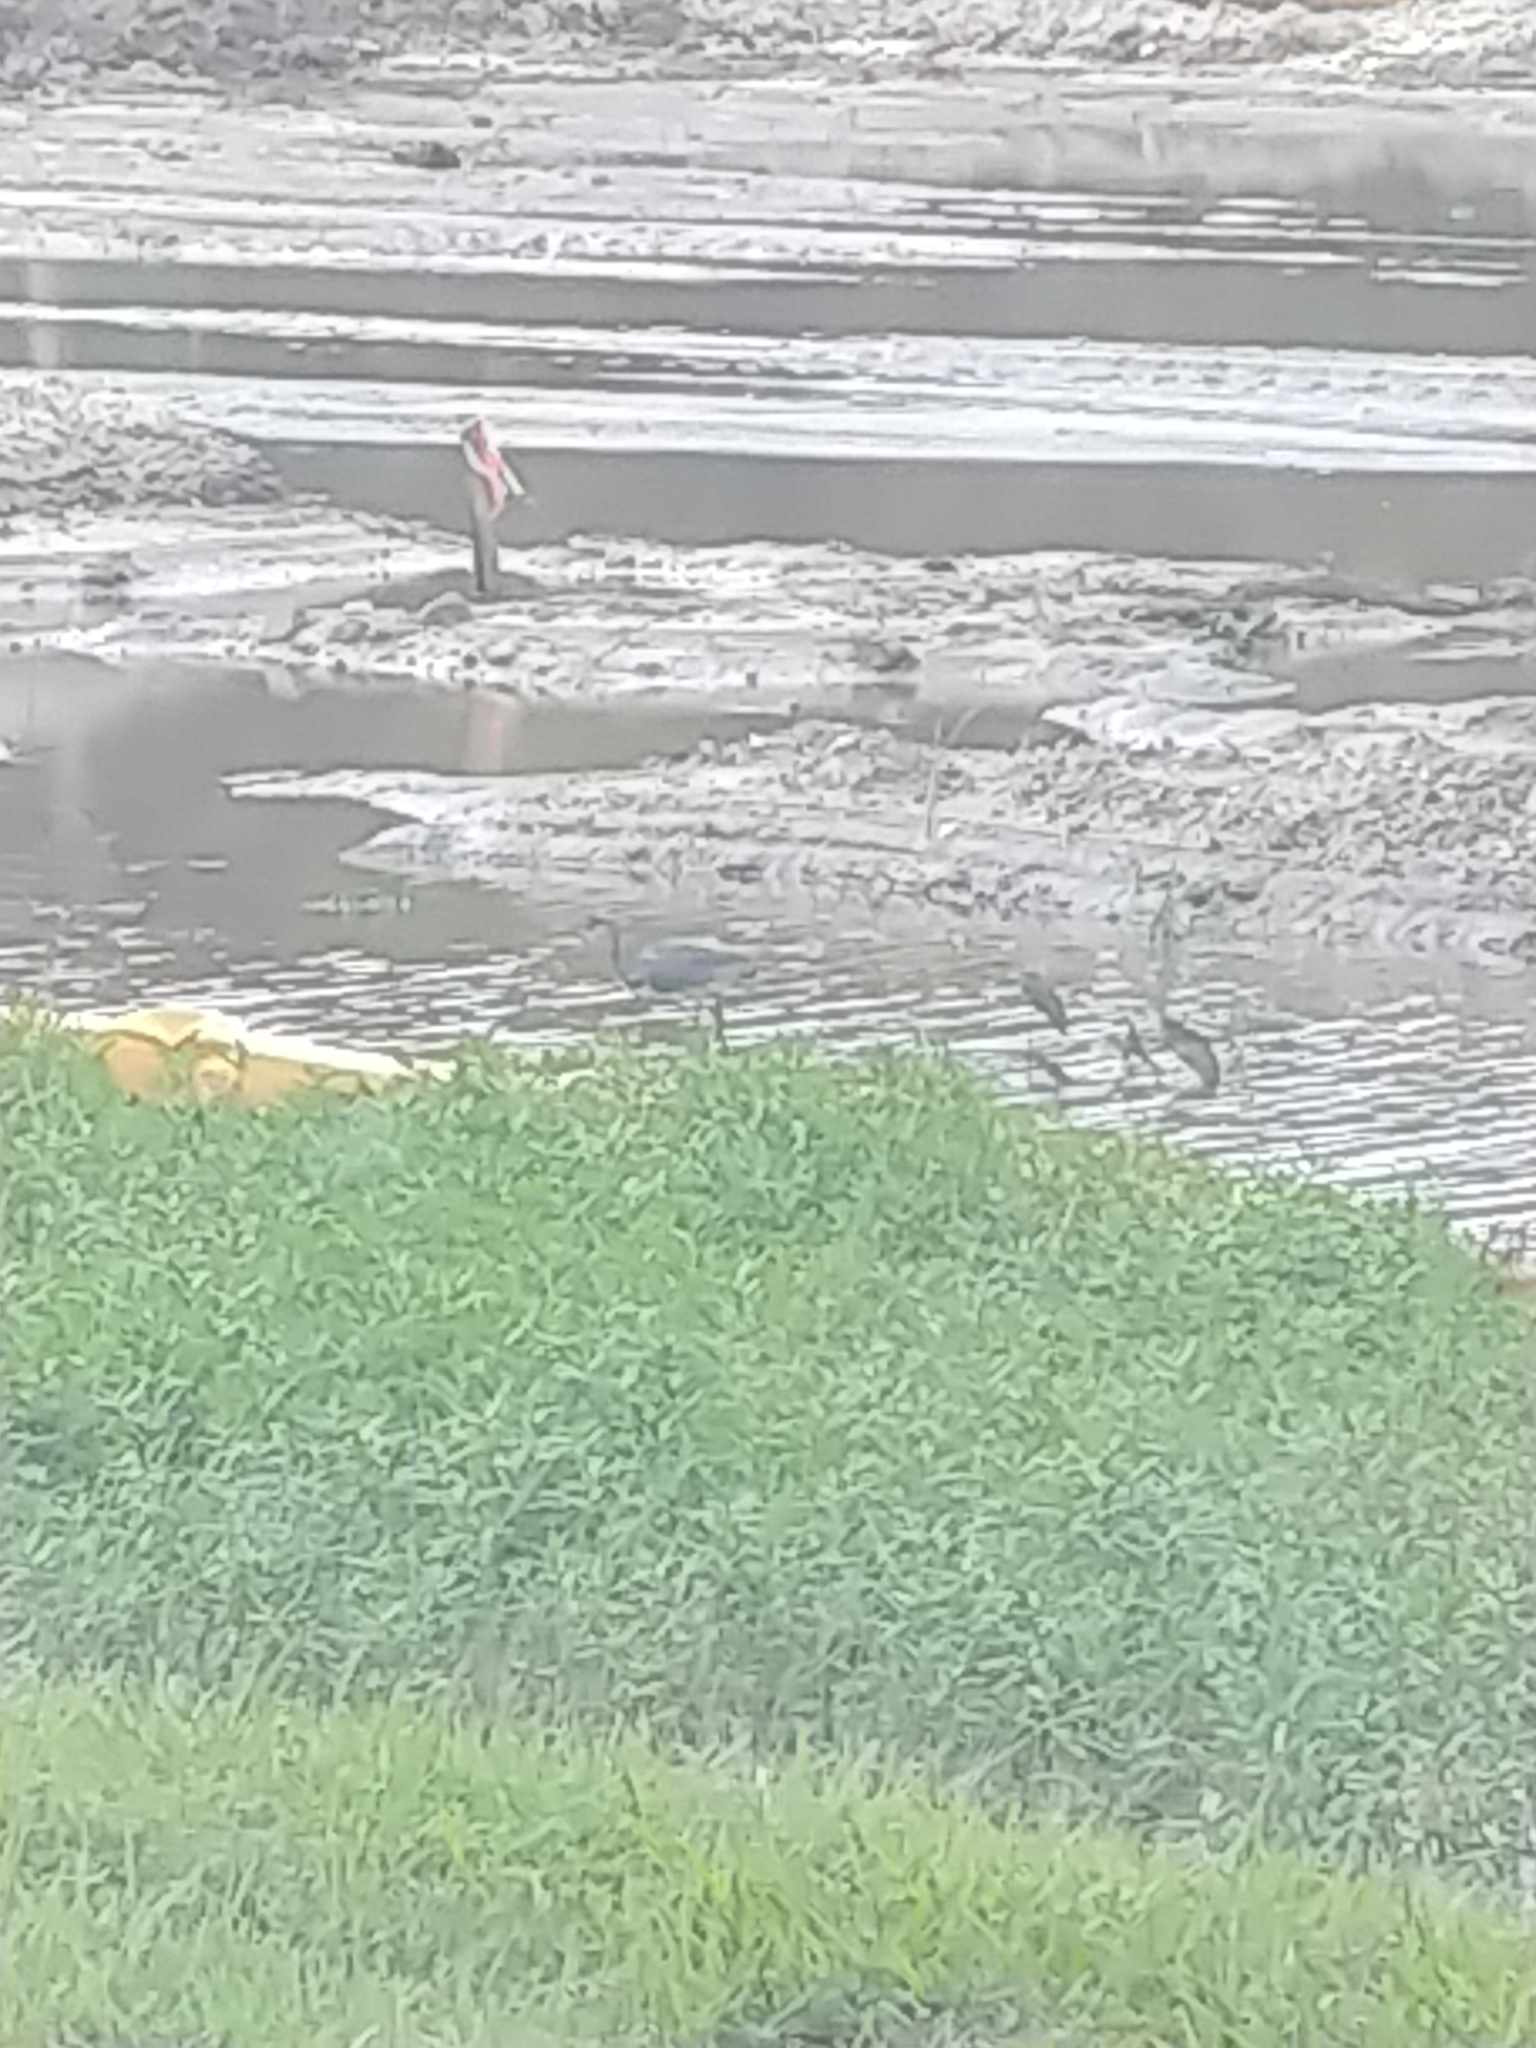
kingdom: Animalia
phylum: Chordata
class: Aves
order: Pelecaniformes
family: Ardeidae
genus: Egretta
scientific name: Egretta tricolor
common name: Tricolored heron
